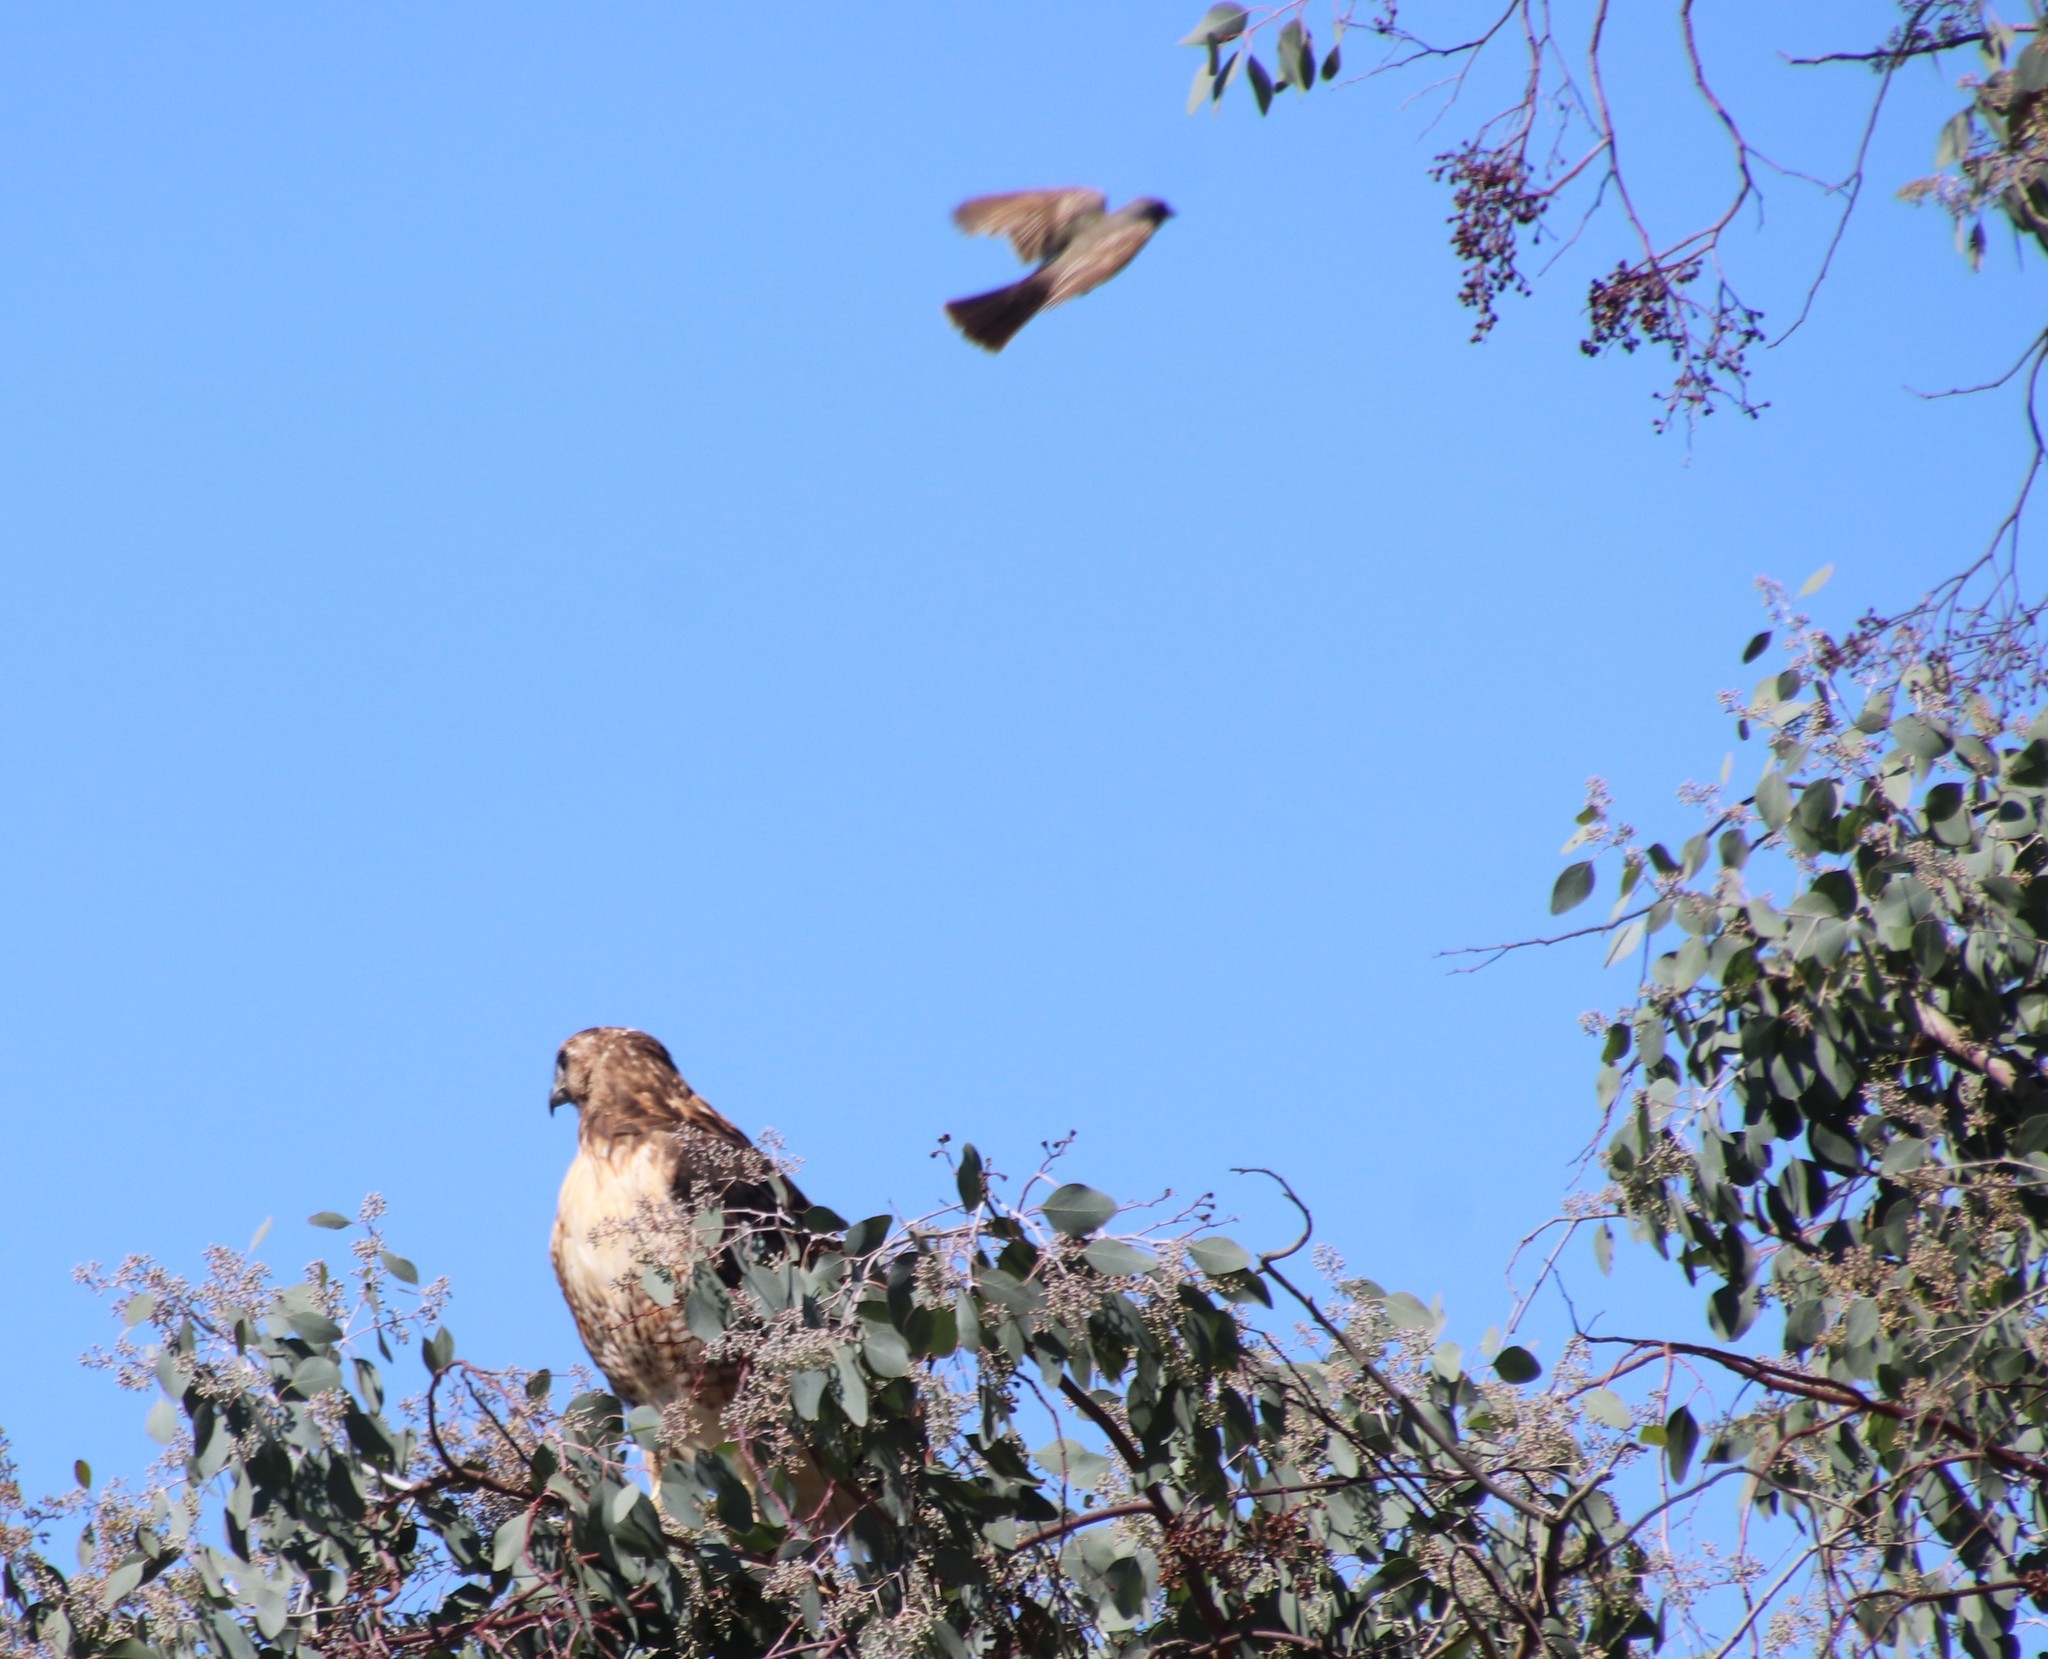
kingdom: Animalia
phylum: Chordata
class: Aves
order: Accipitriformes
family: Accipitridae
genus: Buteo
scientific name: Buteo jamaicensis
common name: Red-tailed hawk
